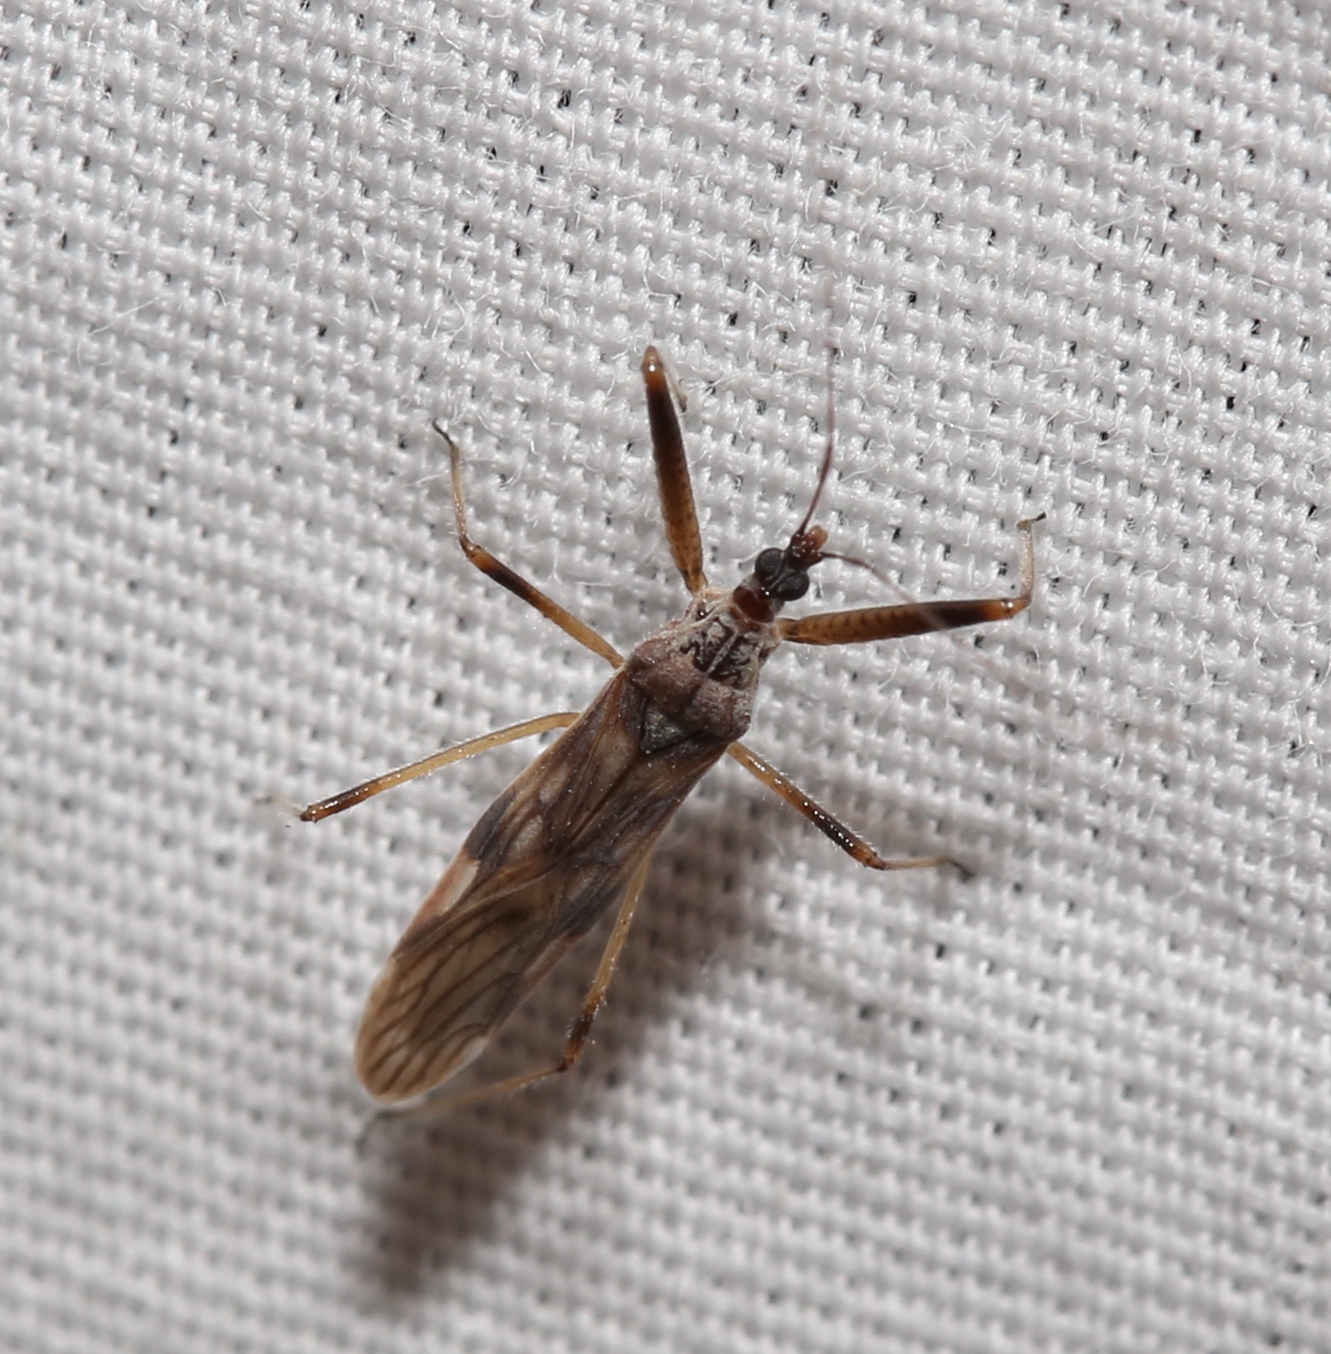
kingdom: Animalia
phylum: Arthropoda
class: Insecta
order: Hemiptera
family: Nabidae
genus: Metatropiphorus
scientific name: Metatropiphorus belfragii
